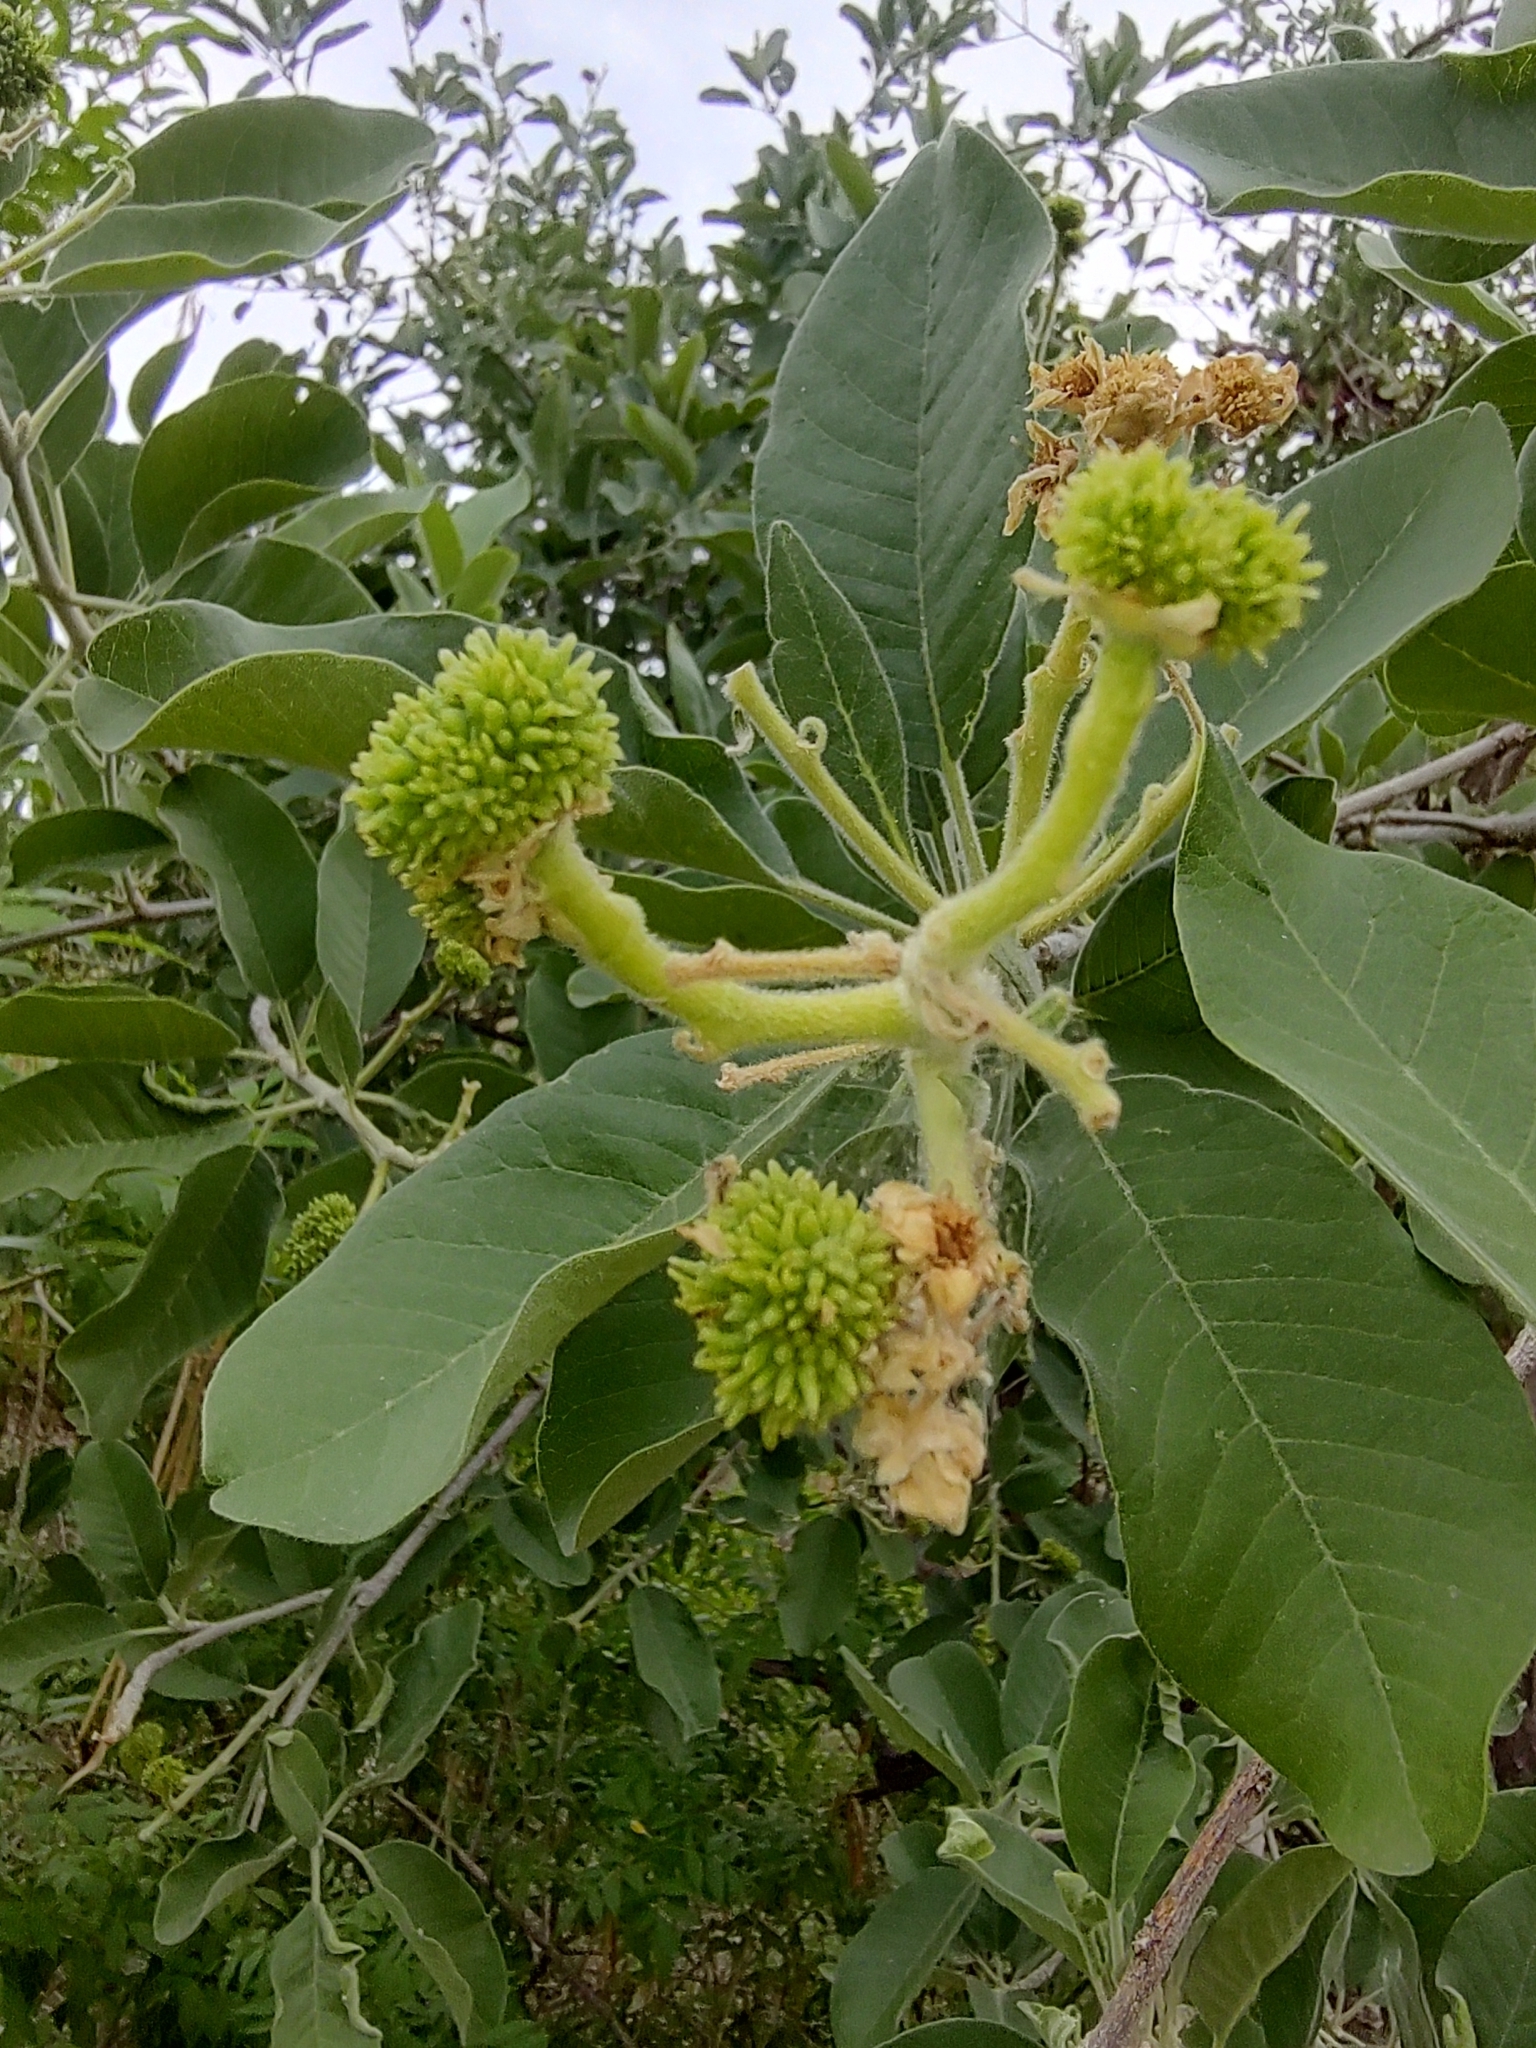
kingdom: Plantae
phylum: Tracheophyta
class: Magnoliopsida
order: Sapindales
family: Rutaceae
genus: Esenbeckia
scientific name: Esenbeckia flava
